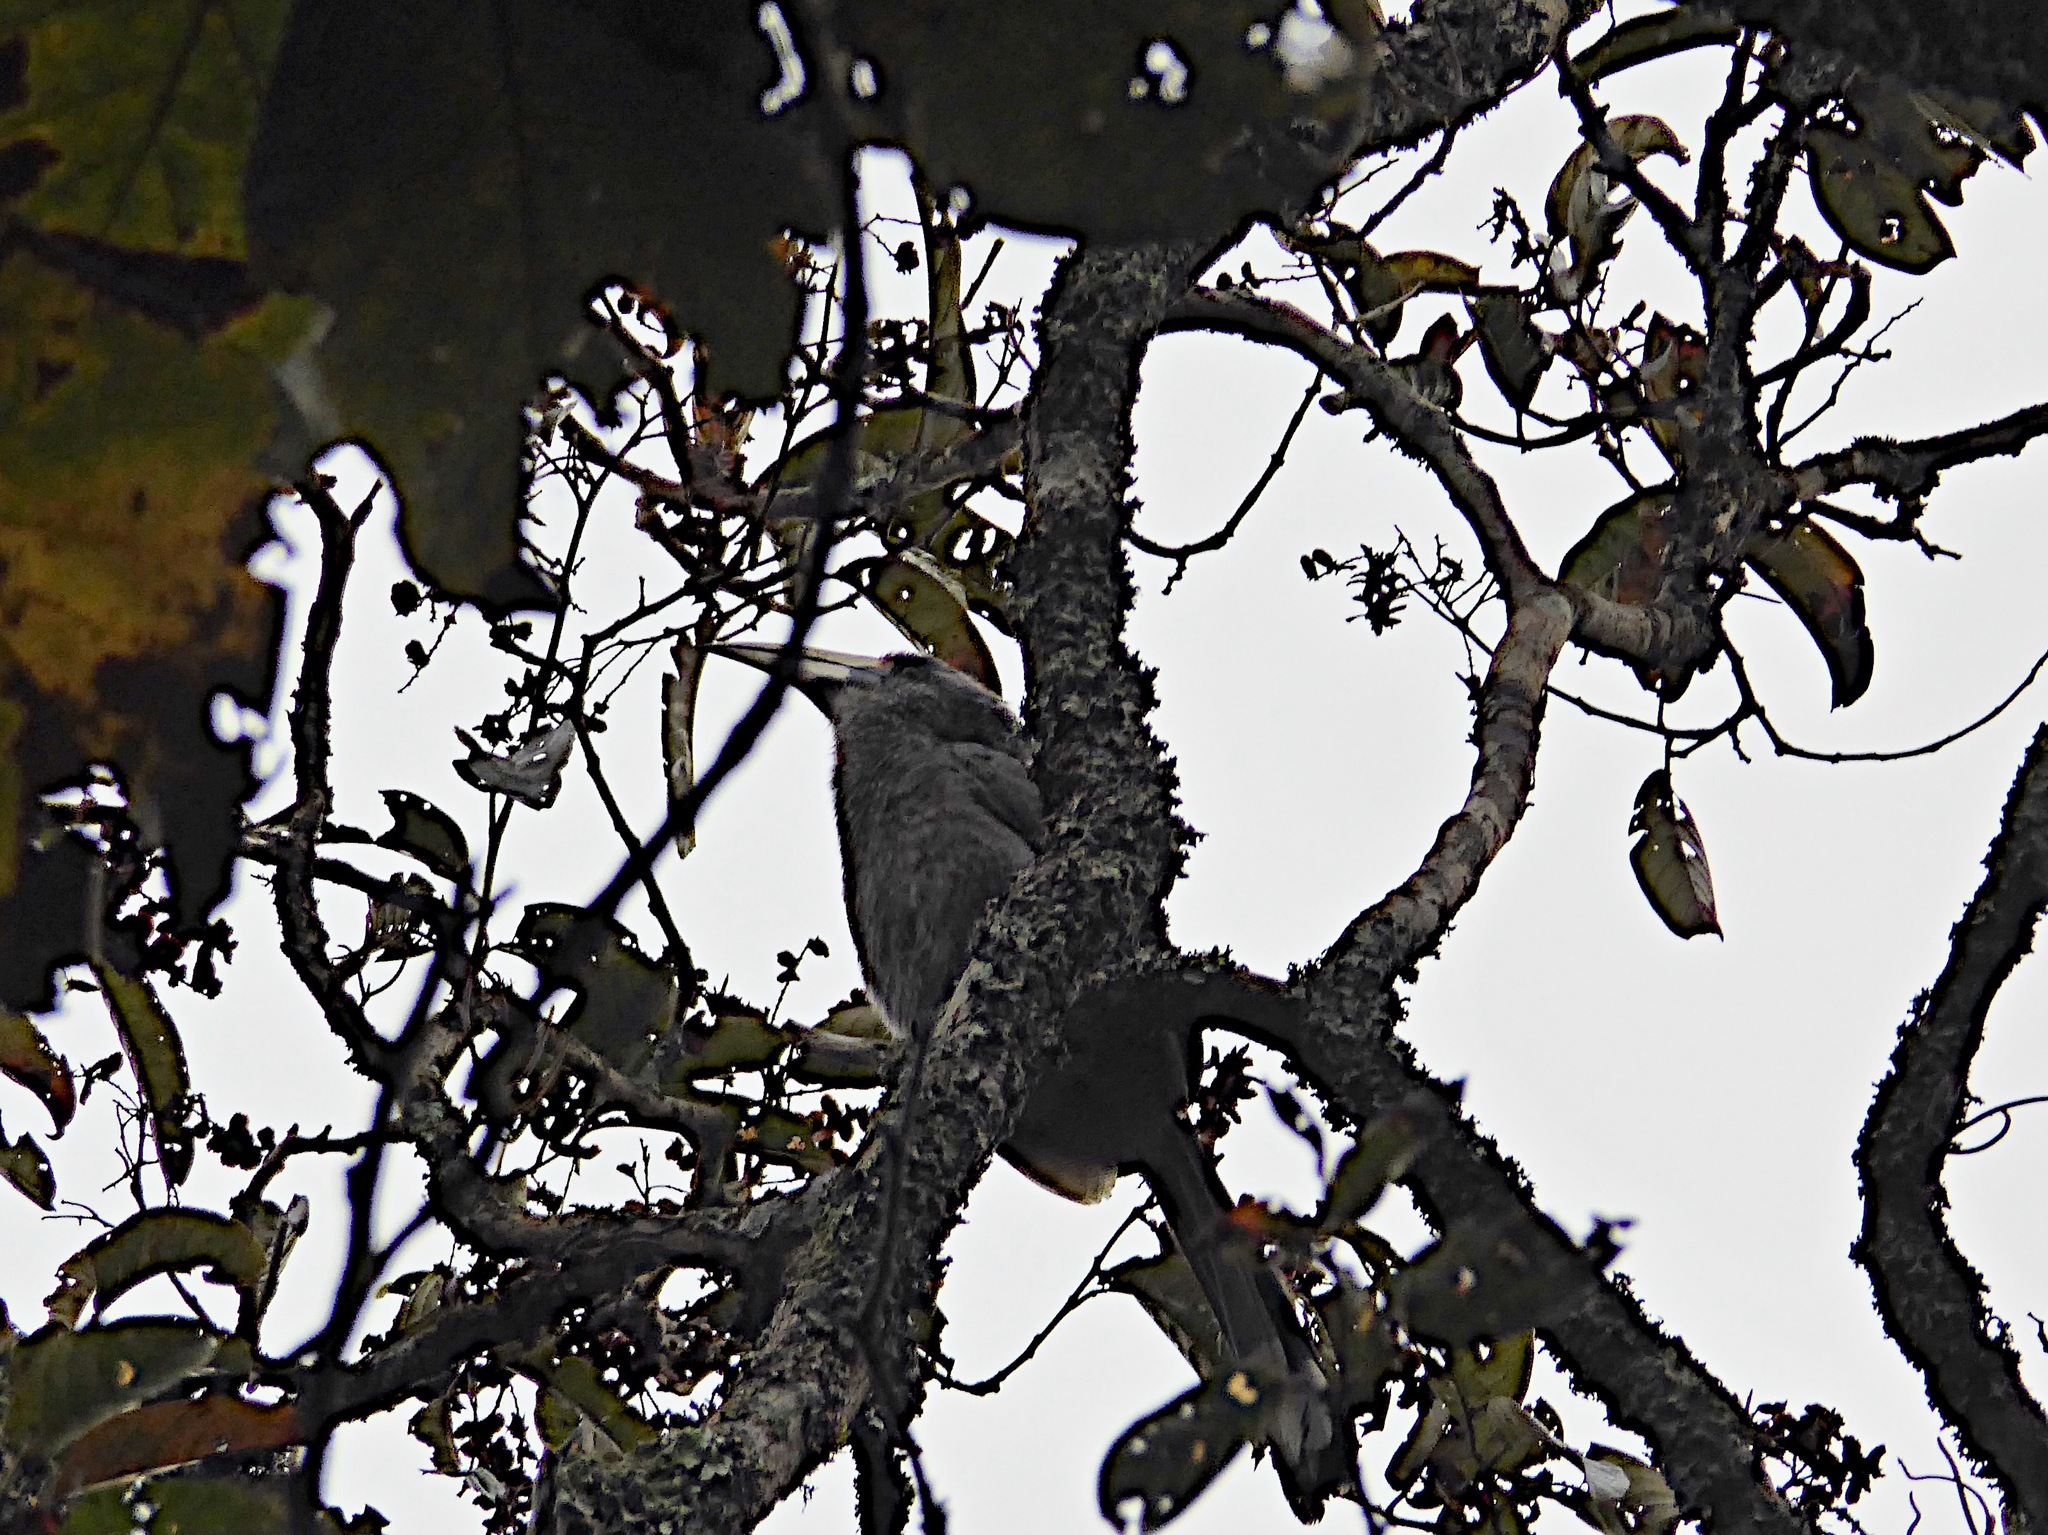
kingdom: Animalia
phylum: Chordata
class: Aves
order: Bucerotiformes
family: Bucerotidae
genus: Ocyceros
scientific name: Ocyceros griseus
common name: Malabar grey hornbill
